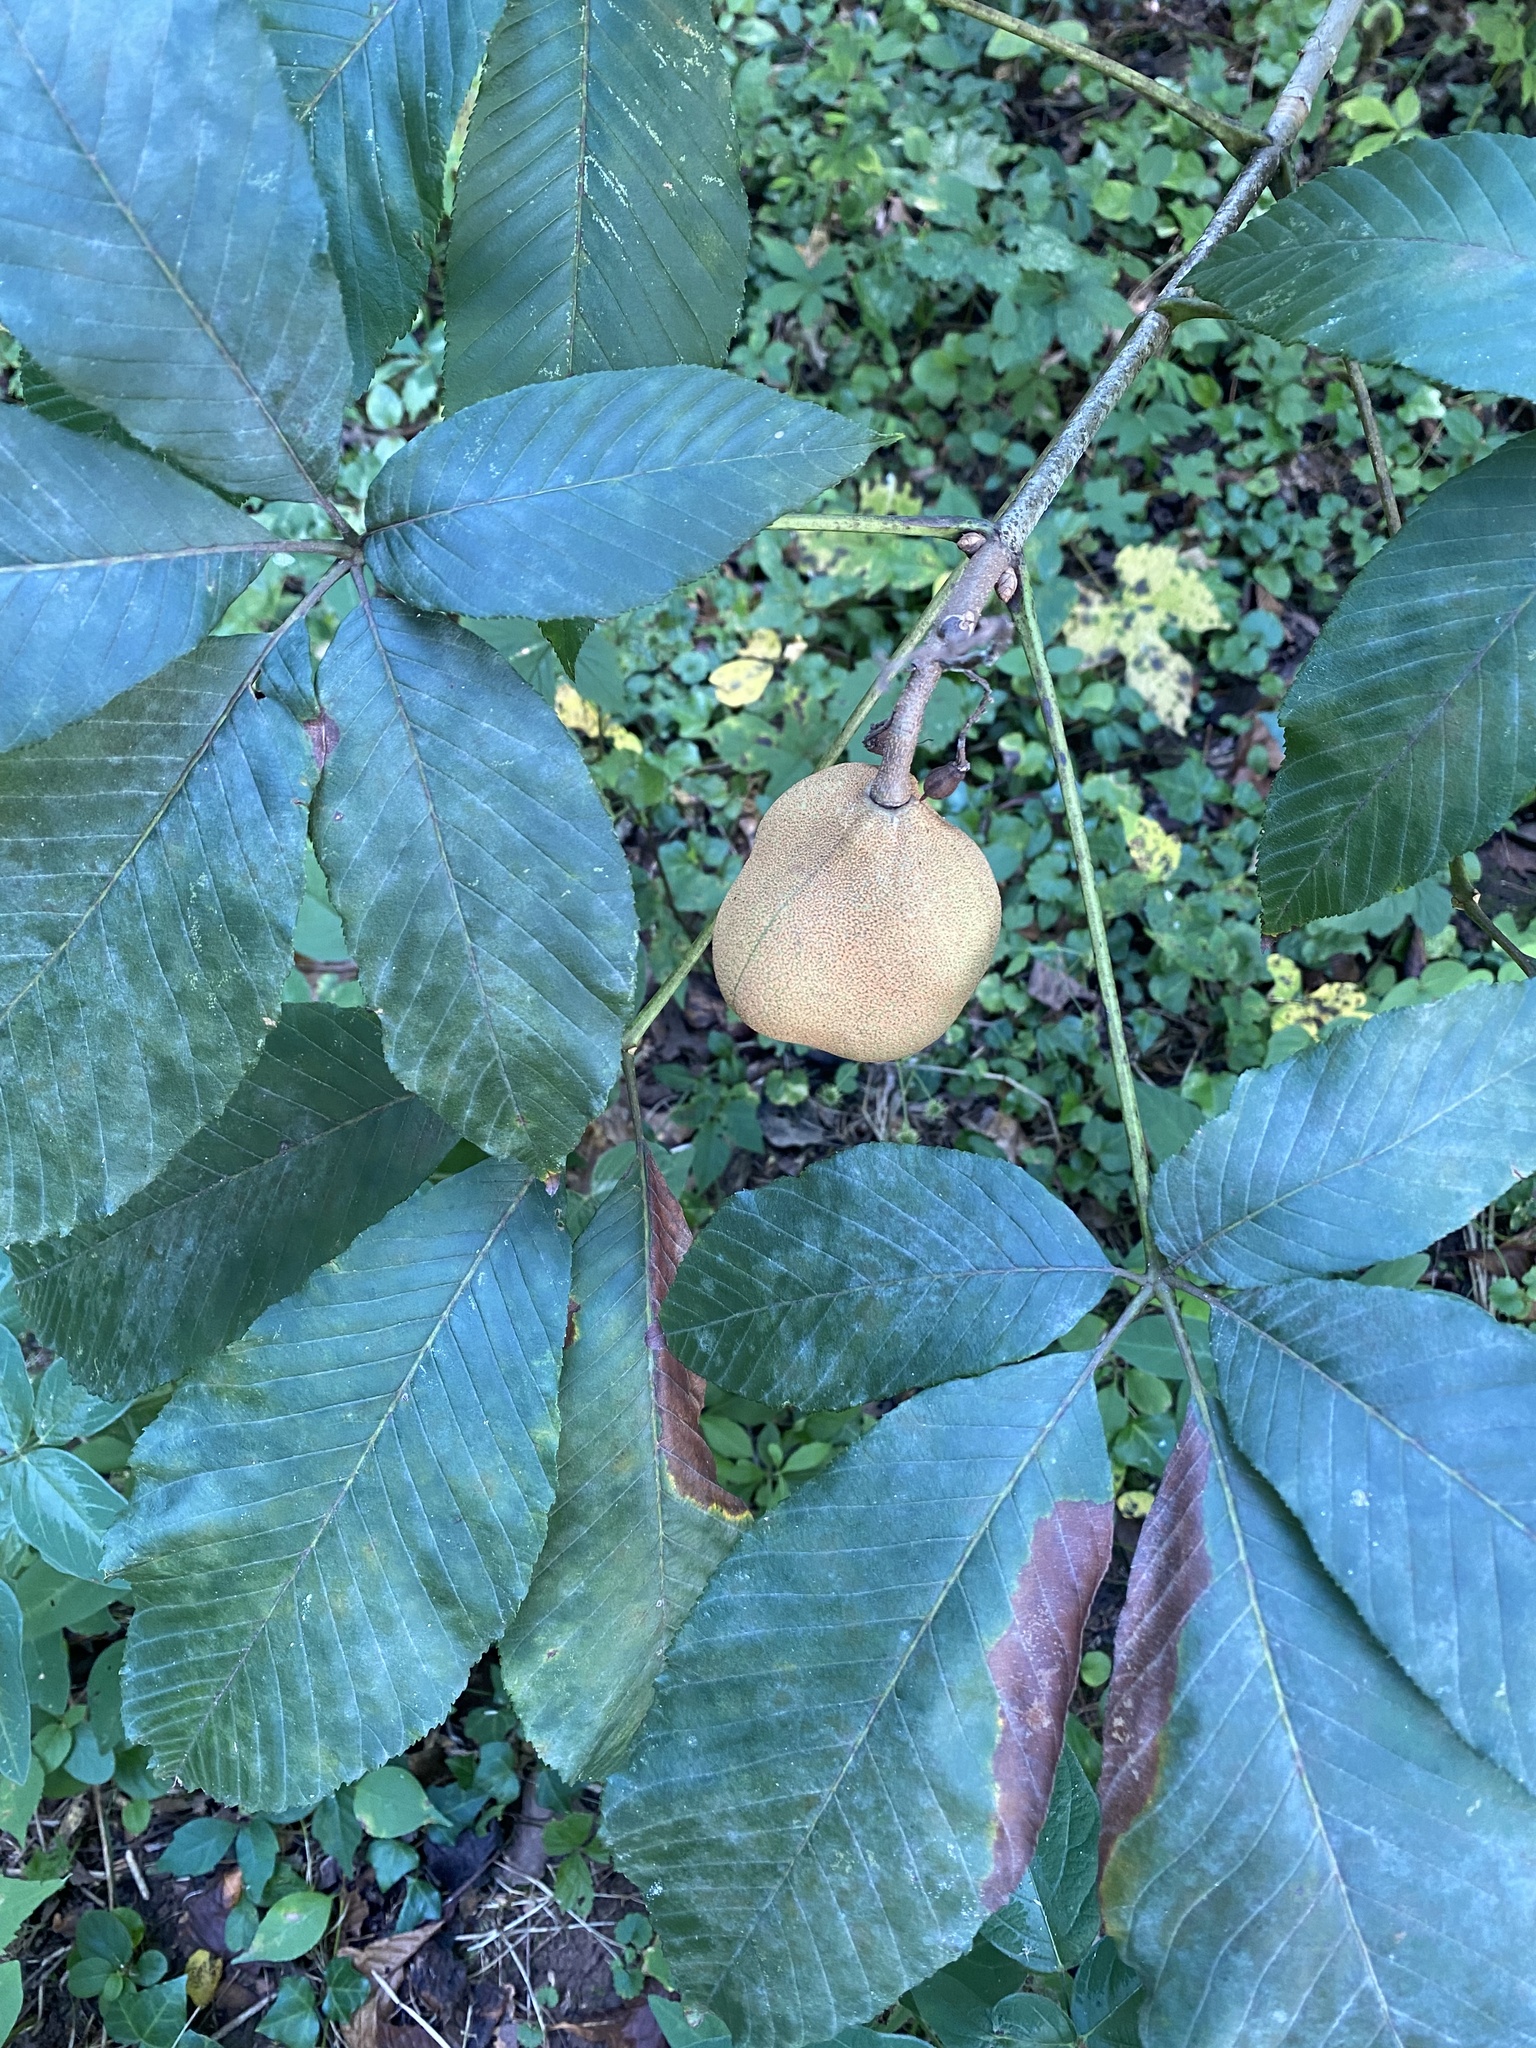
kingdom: Plantae
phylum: Tracheophyta
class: Magnoliopsida
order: Sapindales
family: Sapindaceae
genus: Aesculus
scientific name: Aesculus flava
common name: Yellow buckeye
